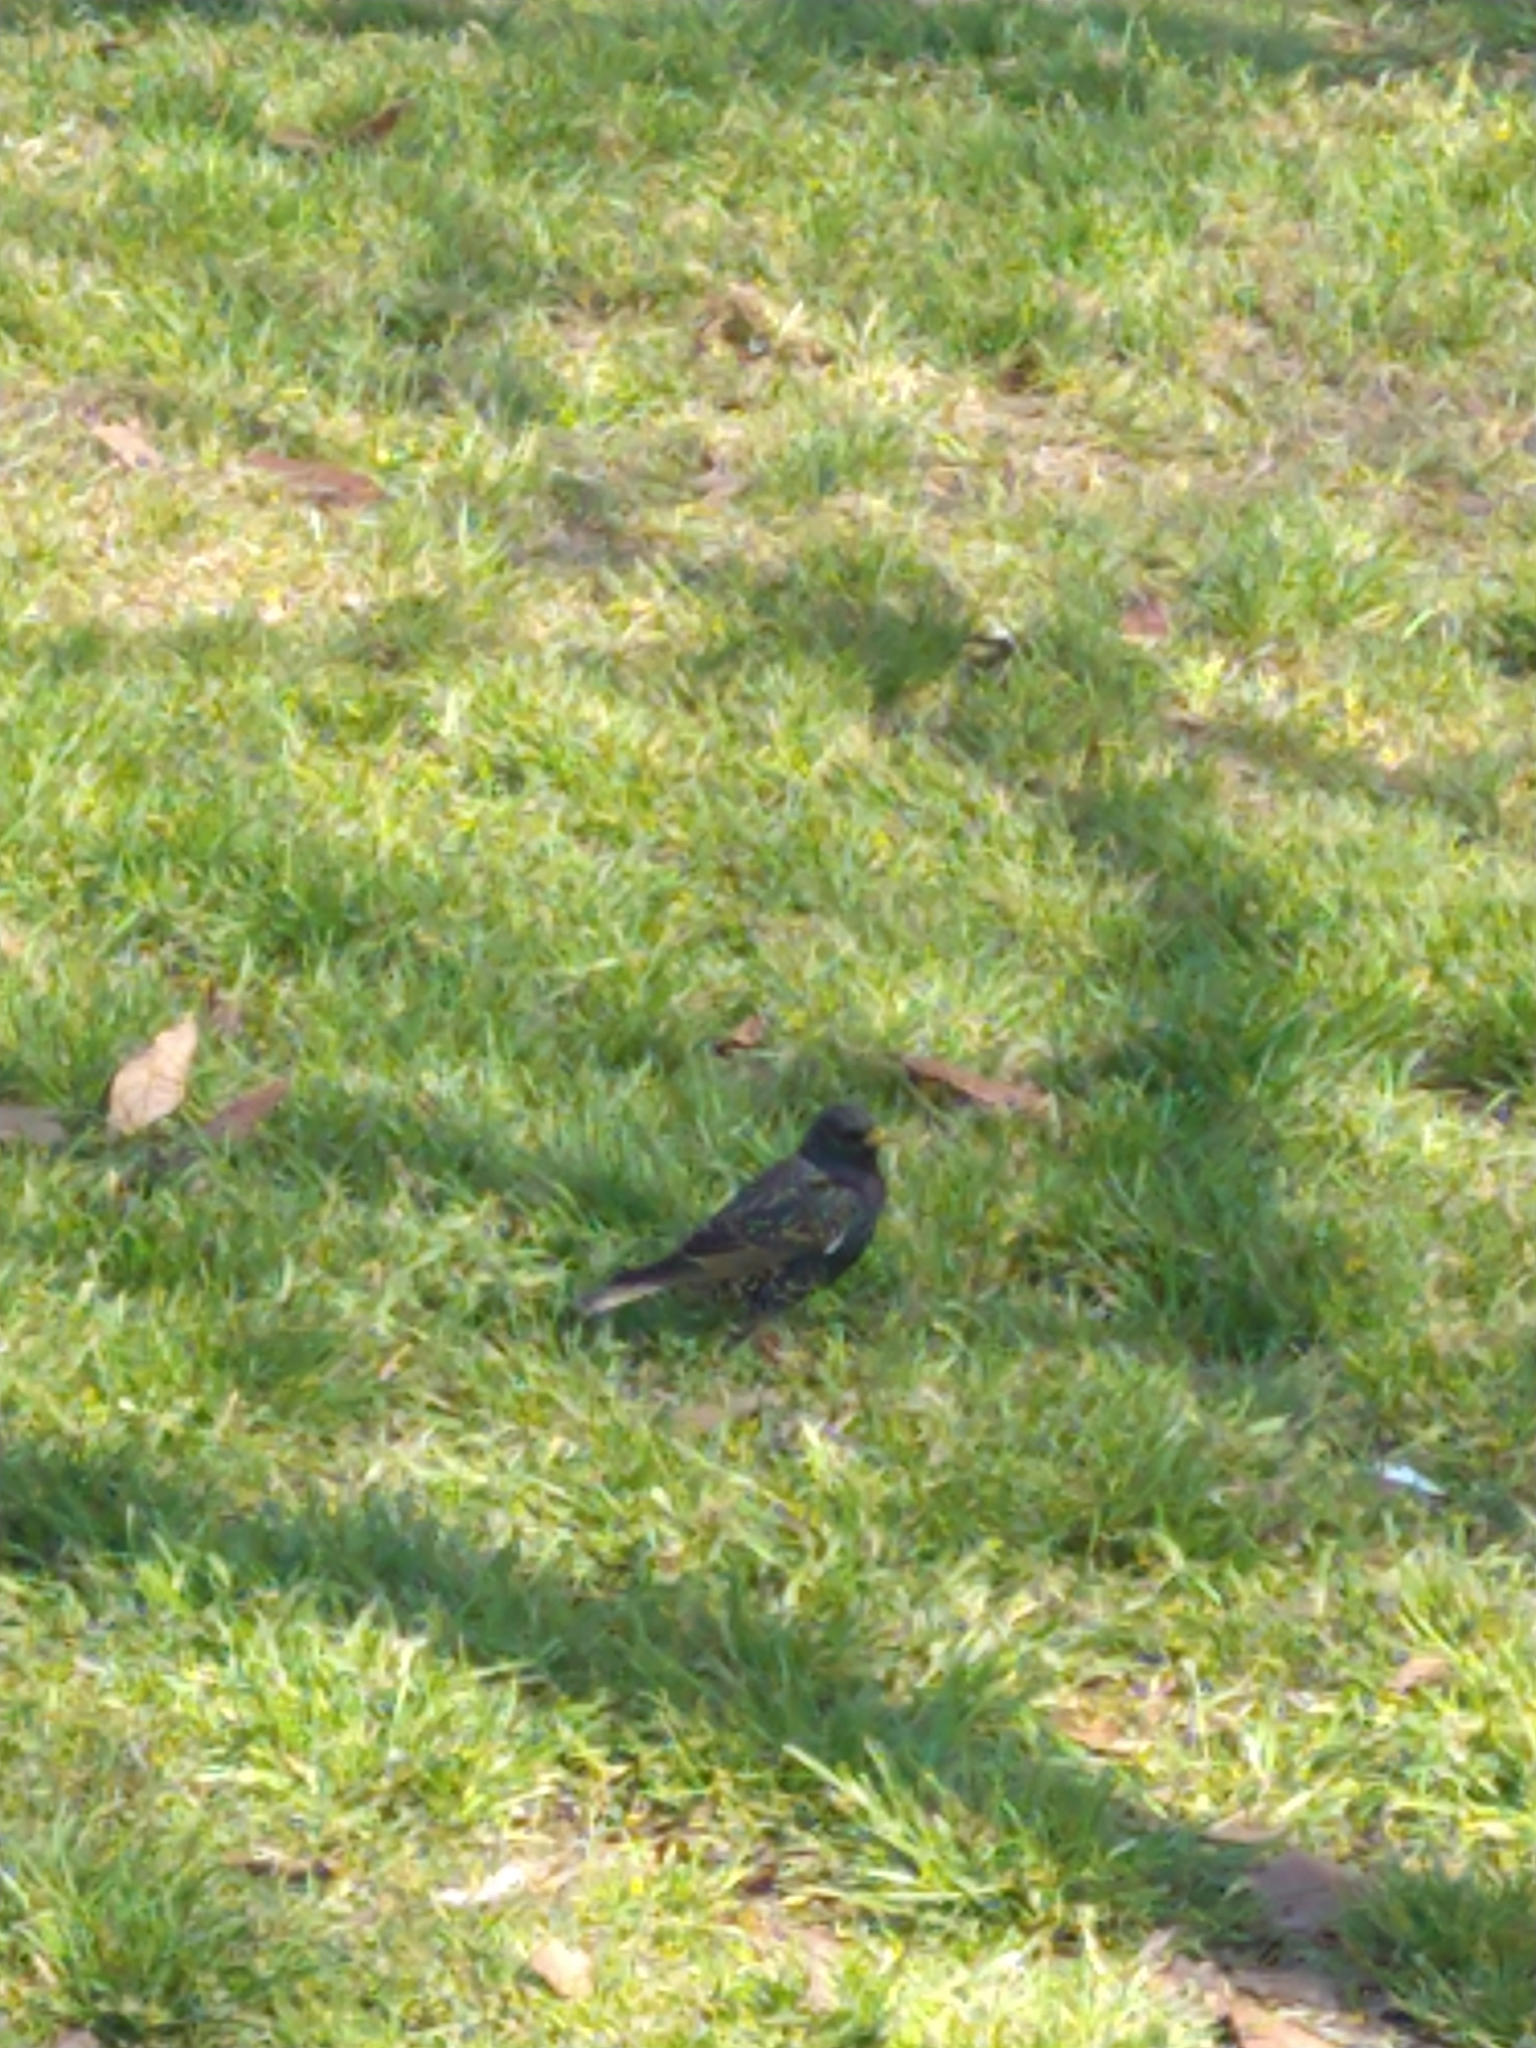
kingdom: Animalia
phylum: Chordata
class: Aves
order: Passeriformes
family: Sturnidae
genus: Sturnus
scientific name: Sturnus vulgaris
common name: Common starling
